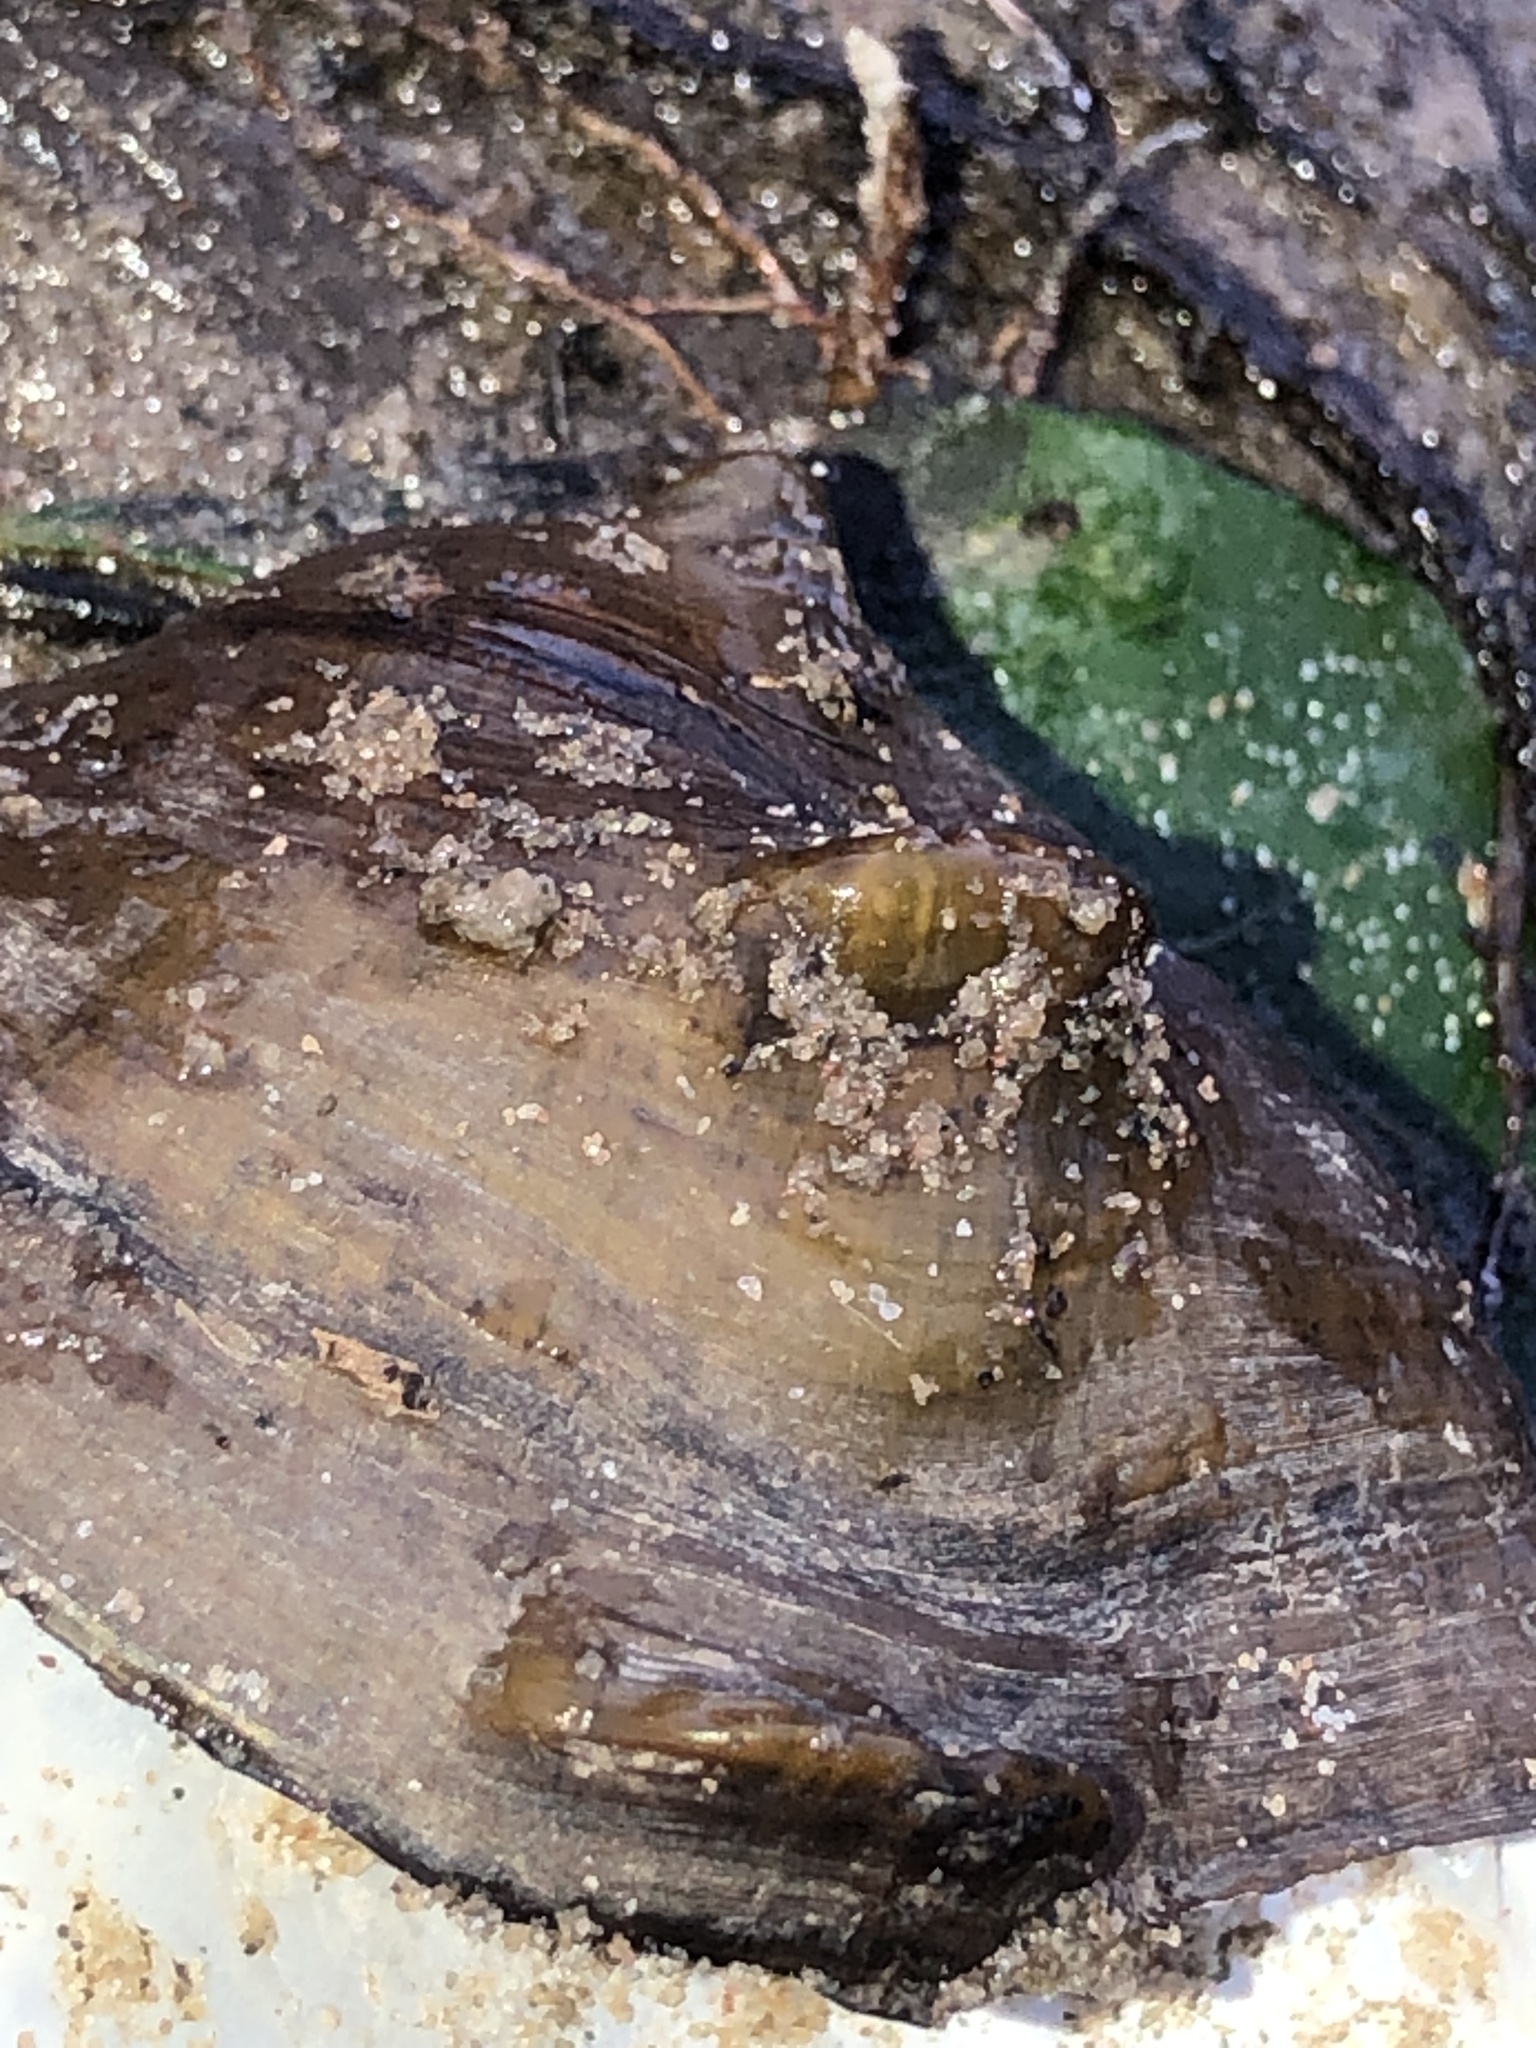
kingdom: Animalia
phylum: Mollusca
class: Bivalvia
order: Unionida
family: Unionidae
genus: Obliquaria
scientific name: Obliquaria reflexa
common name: Threehorn wartyback
